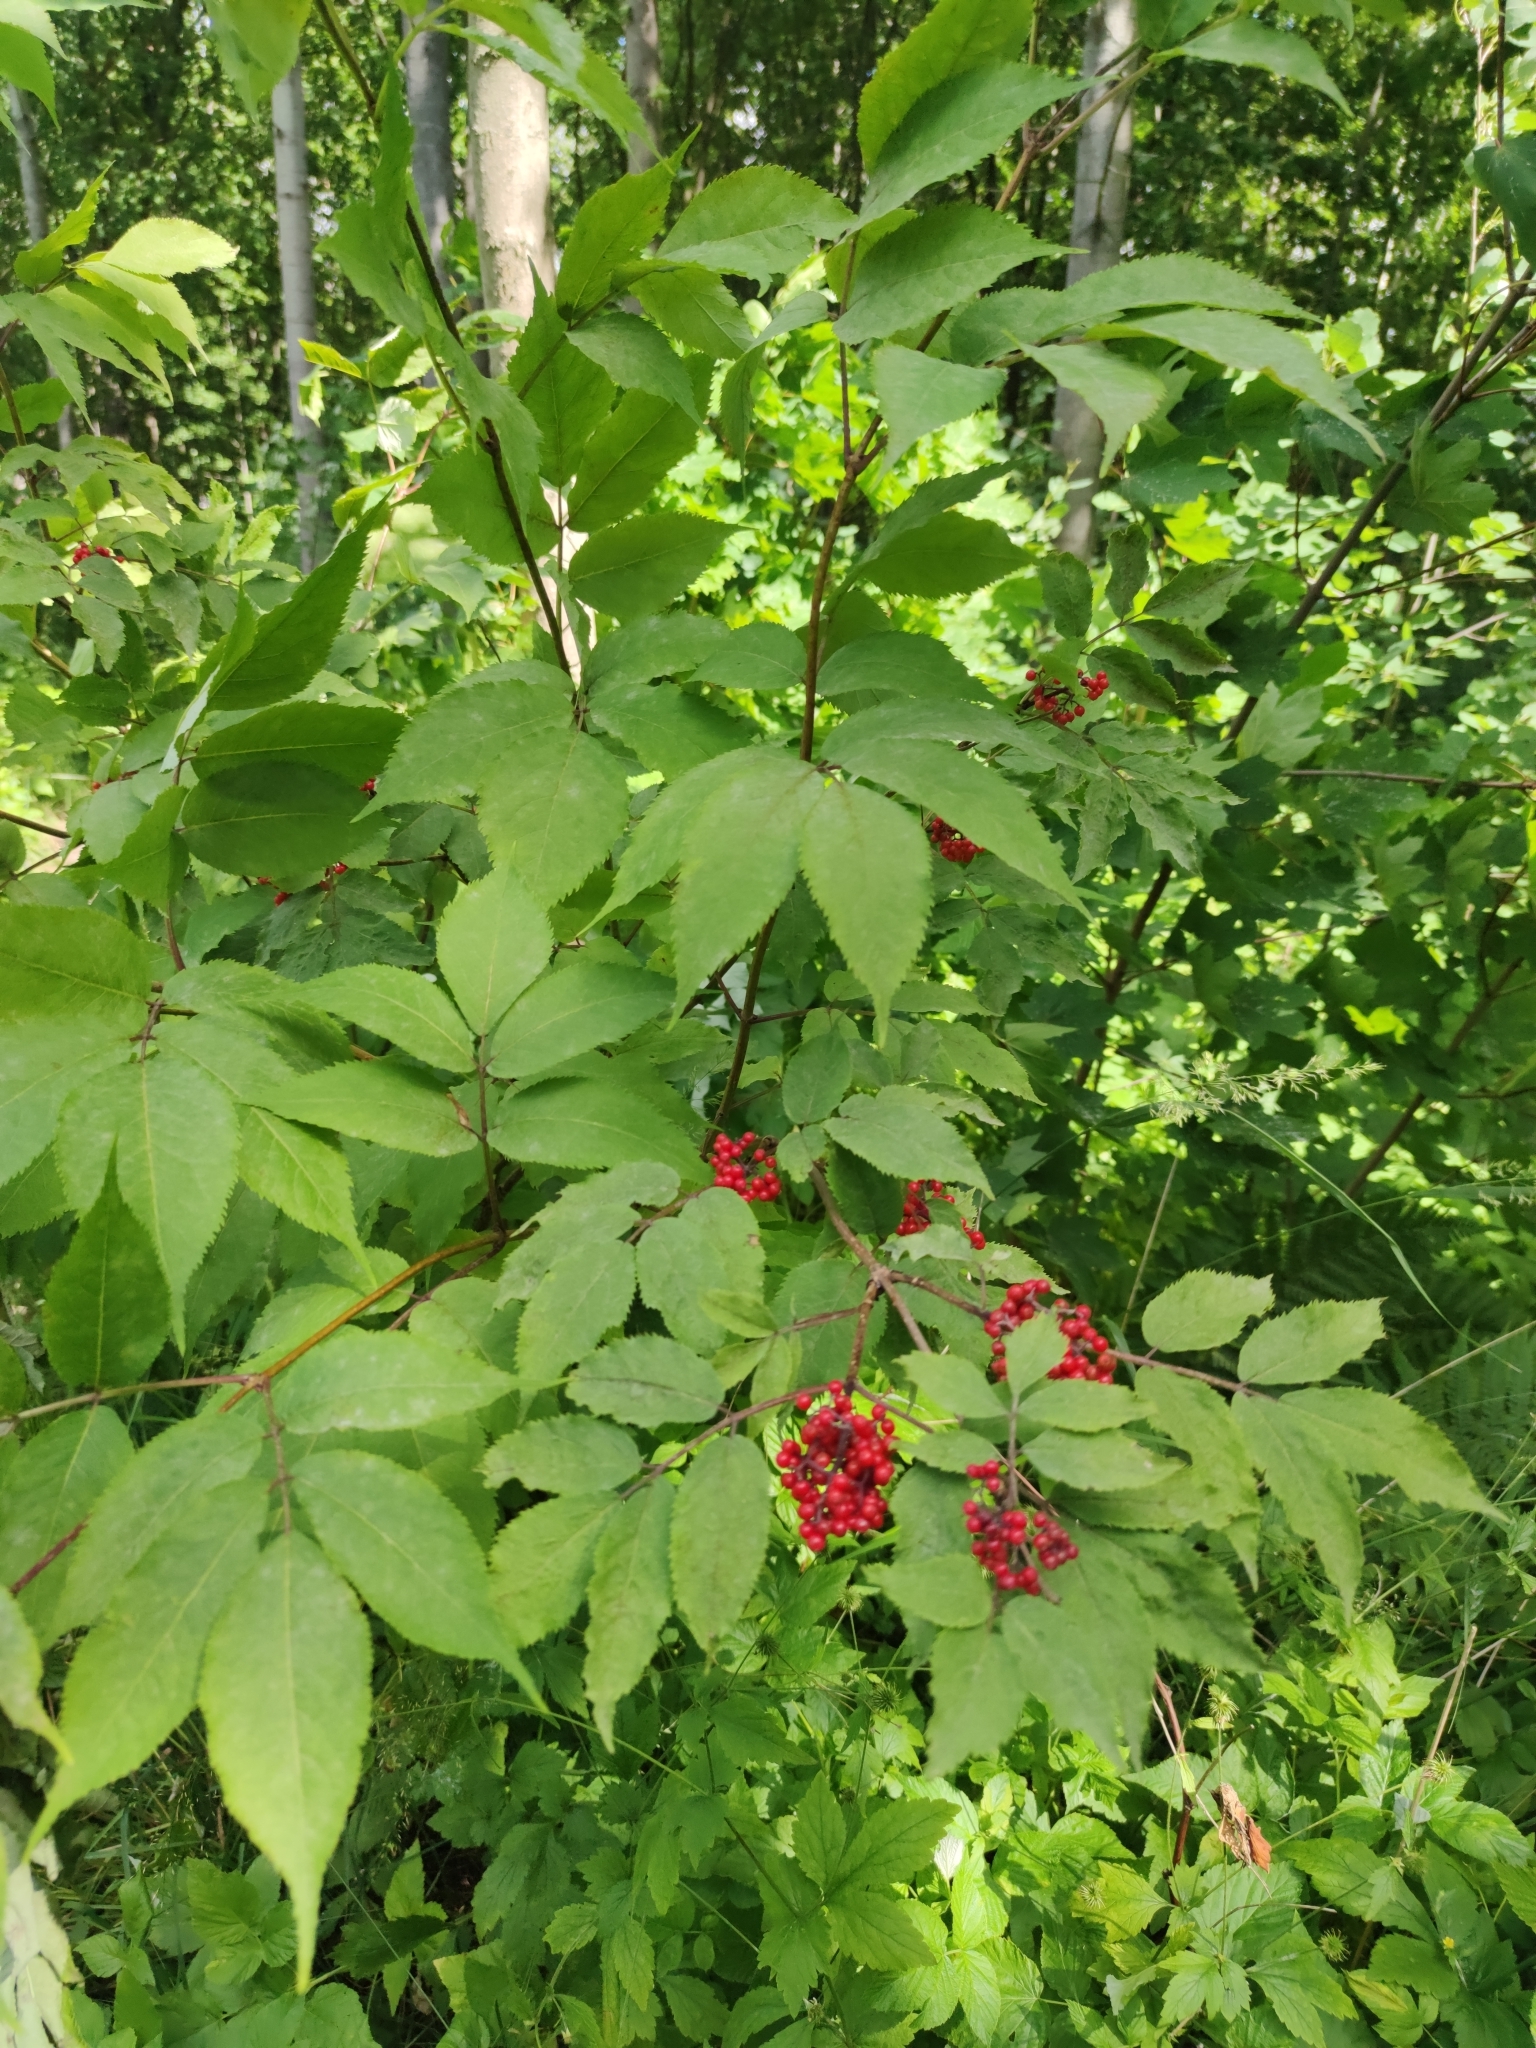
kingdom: Plantae
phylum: Tracheophyta
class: Magnoliopsida
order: Dipsacales
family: Viburnaceae
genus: Sambucus
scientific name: Sambucus racemosa
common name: Red-berried elder
